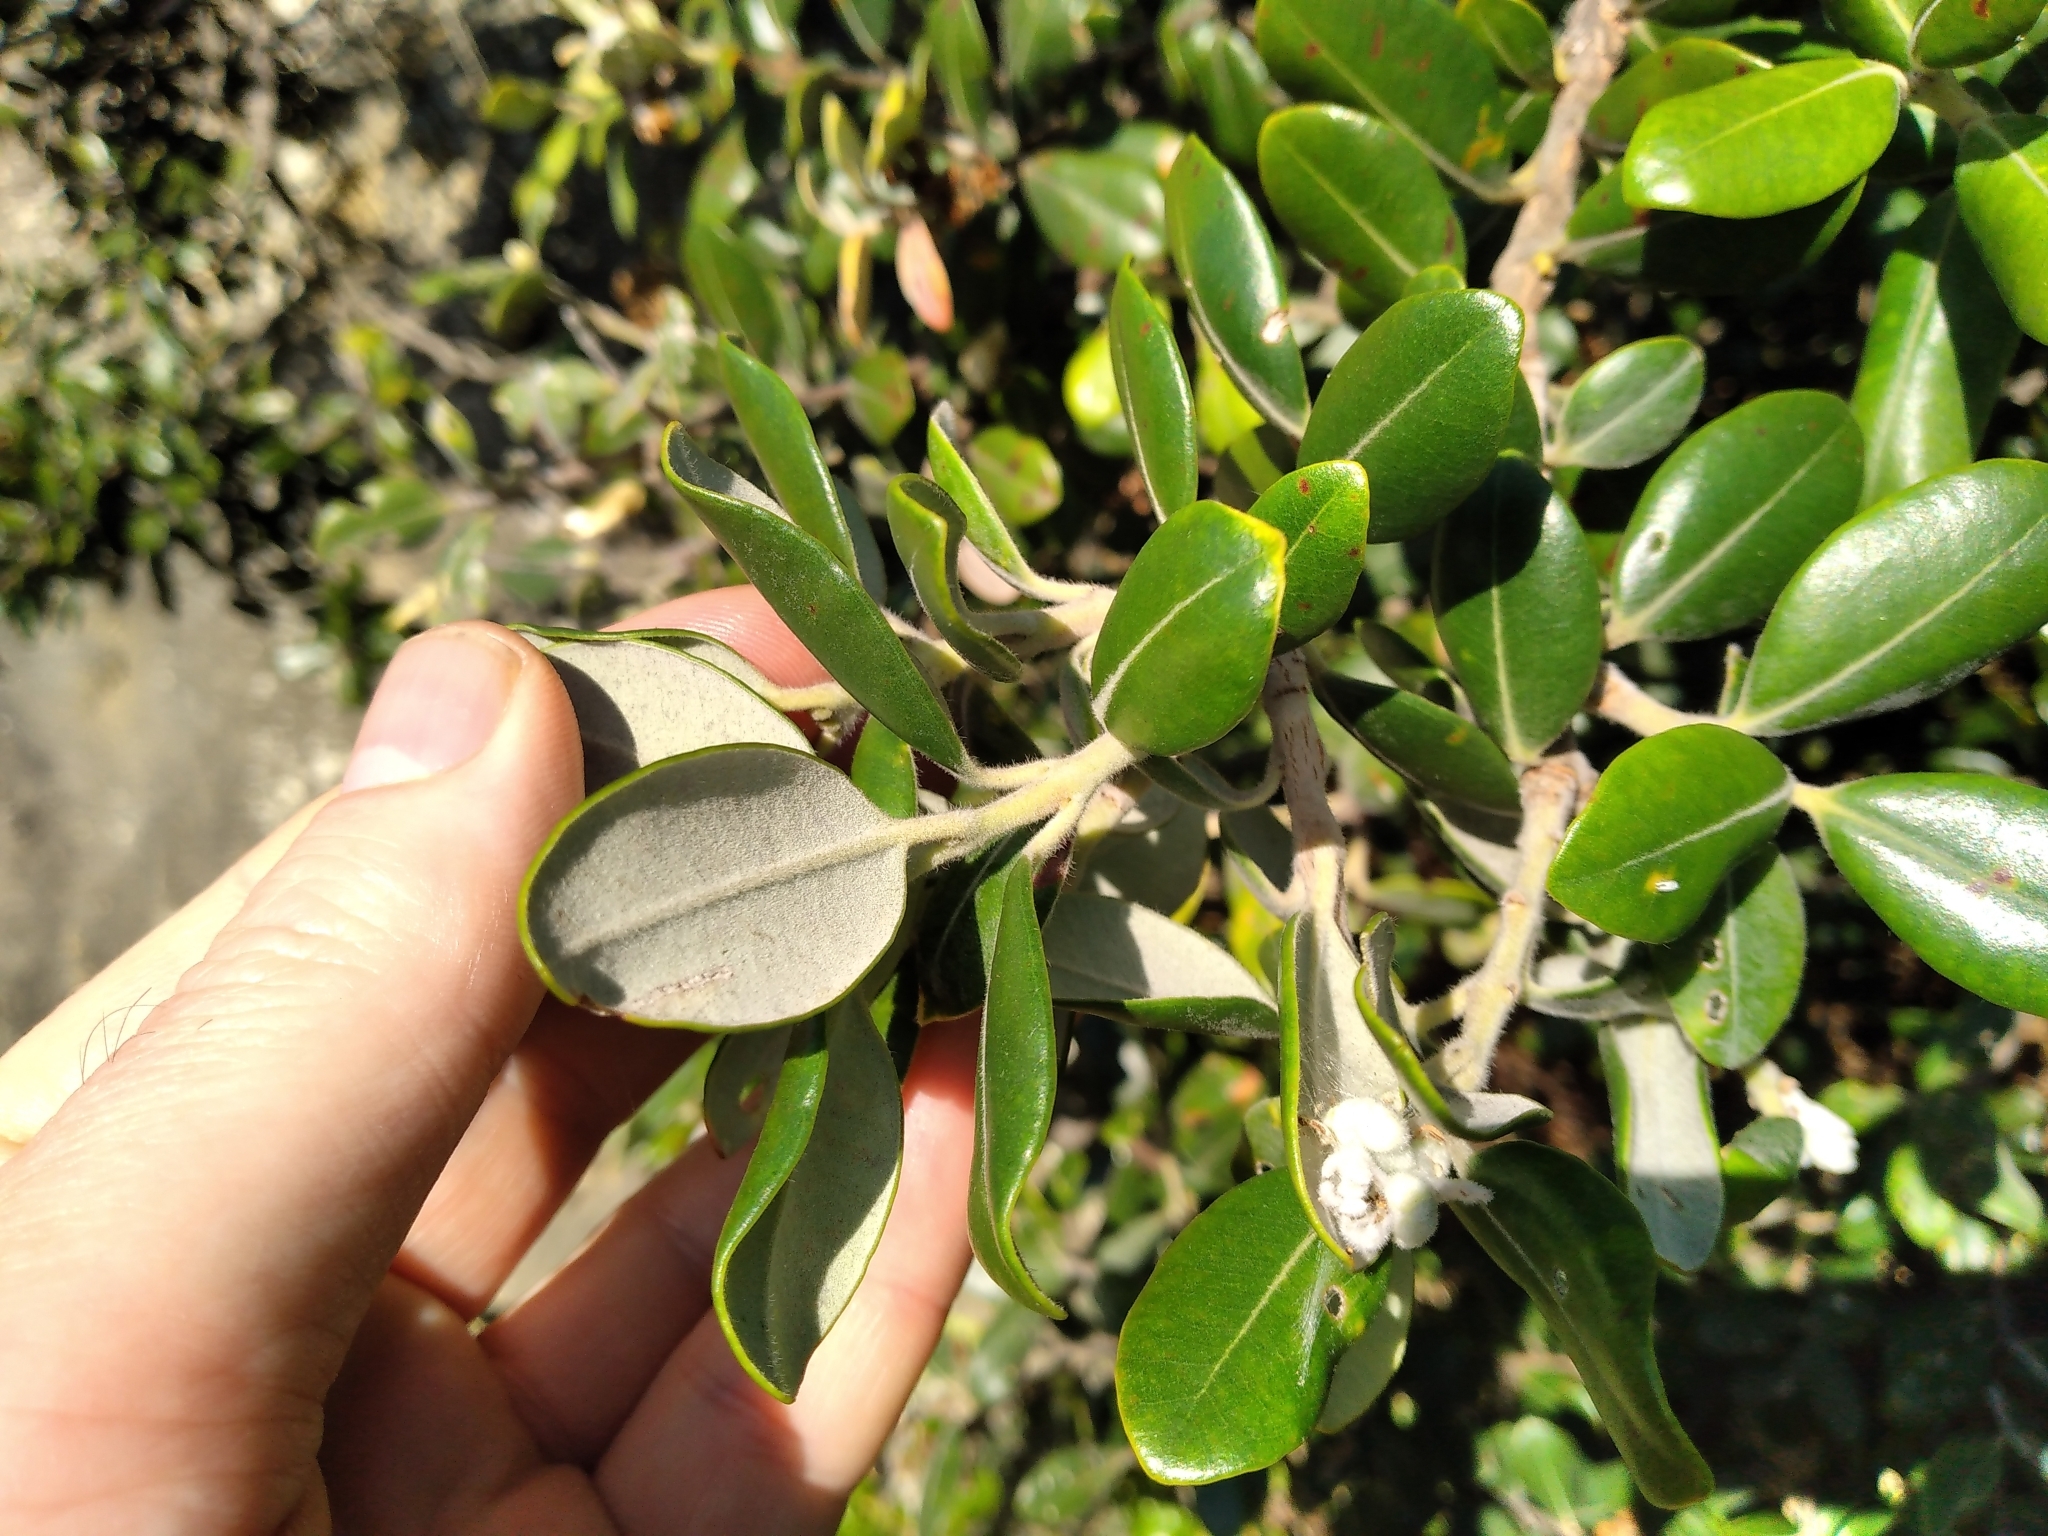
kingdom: Plantae
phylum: Tracheophyta
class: Magnoliopsida
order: Myrtales
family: Myrtaceae
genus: Metrosideros
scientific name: Metrosideros kermadecensis
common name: Pohutukawa
